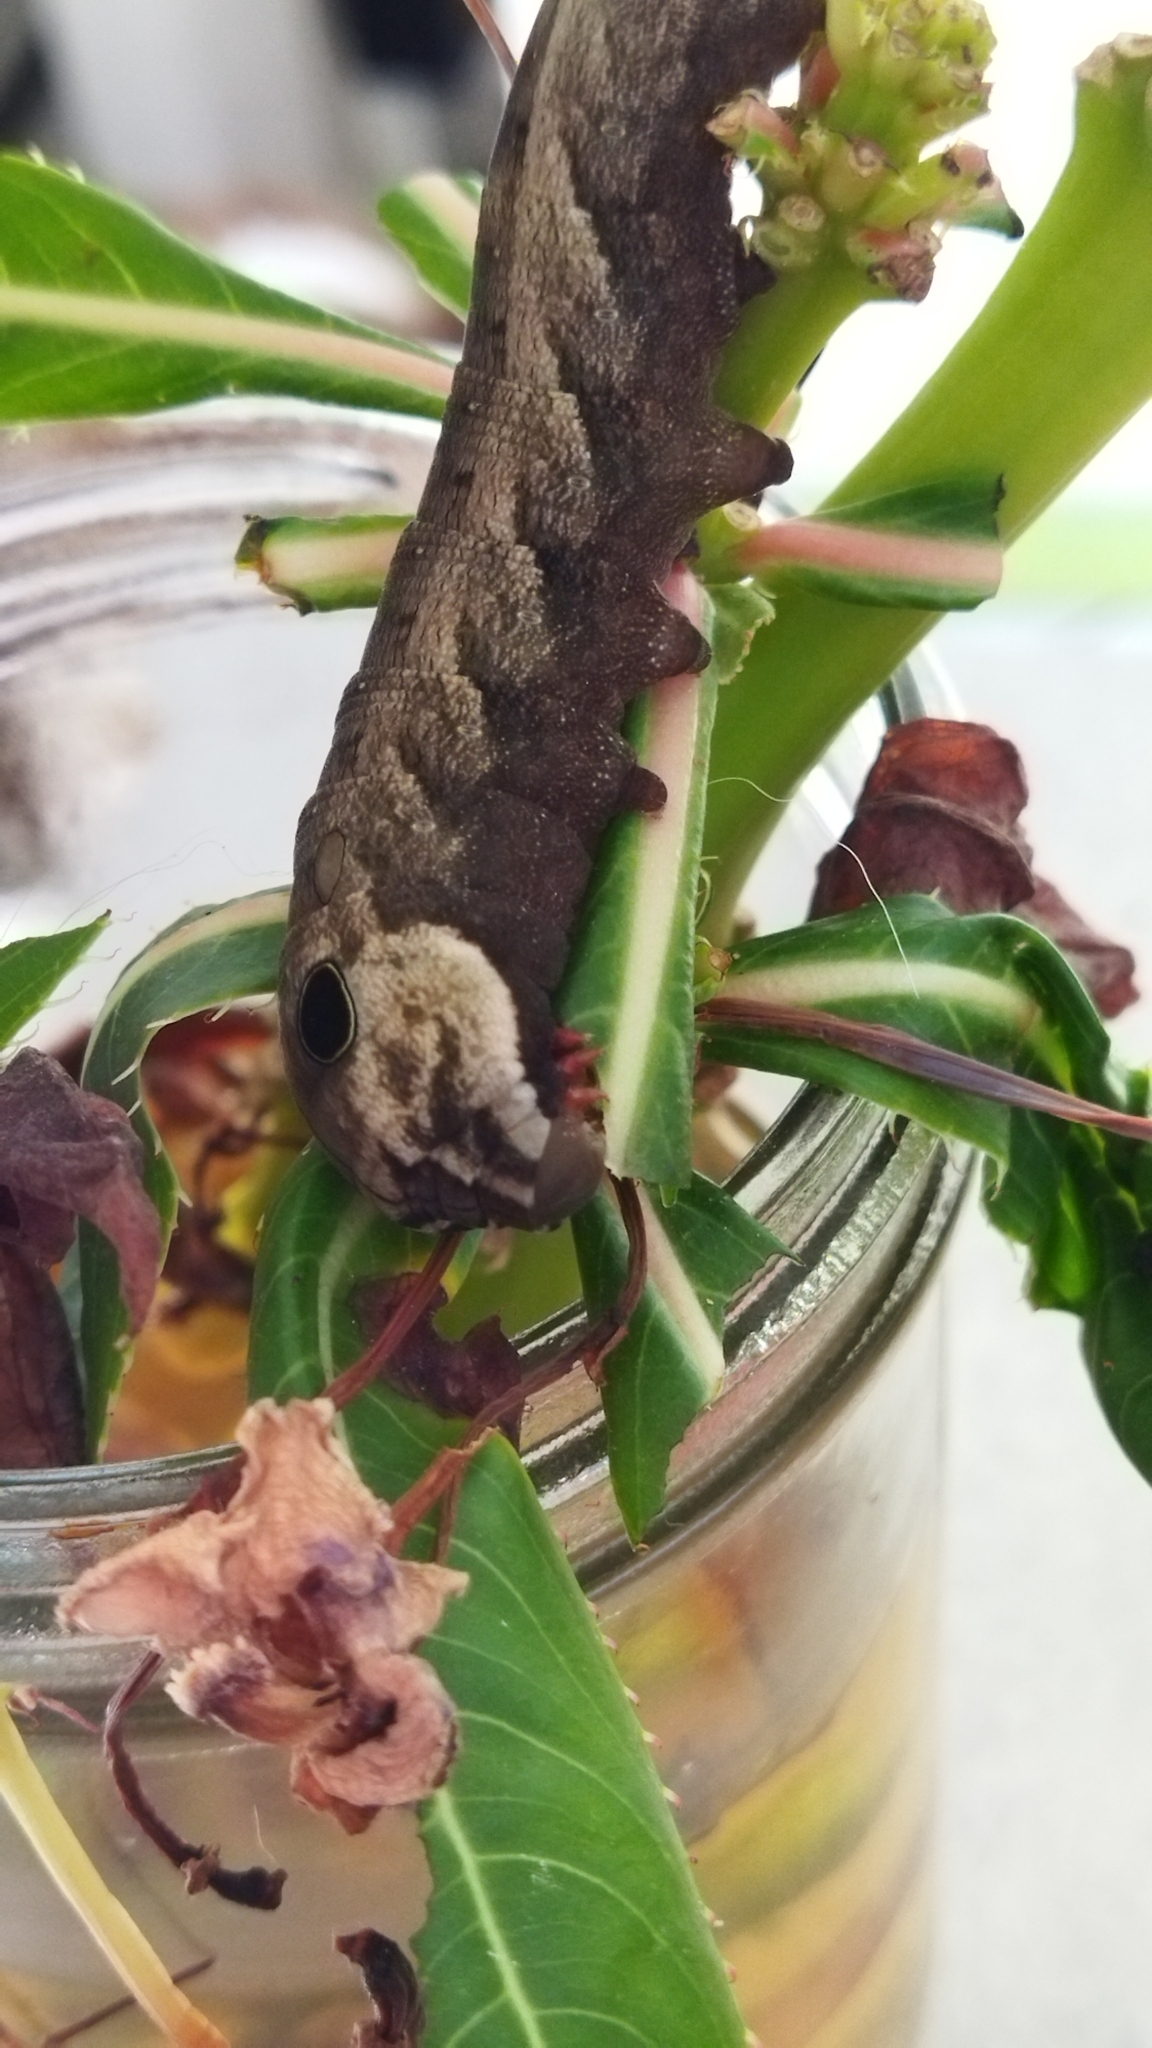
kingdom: Animalia
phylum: Arthropoda
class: Insecta
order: Lepidoptera
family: Sphingidae
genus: Hippotion
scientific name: Hippotion eson
